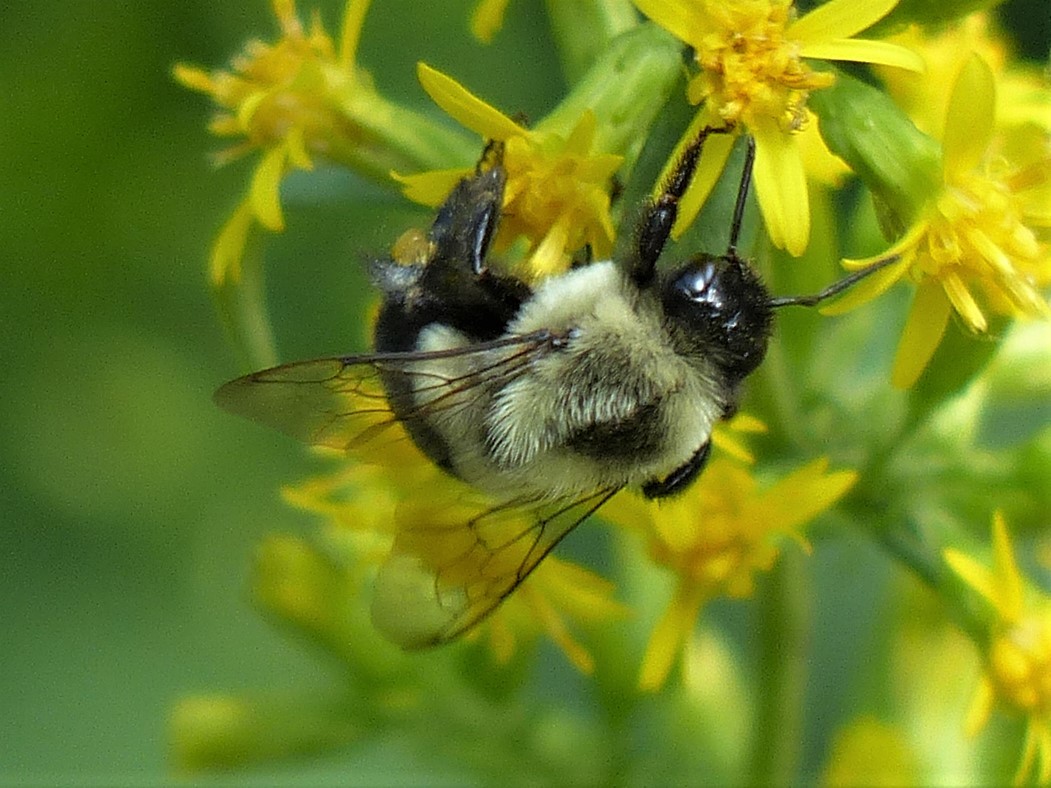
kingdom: Animalia
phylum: Arthropoda
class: Insecta
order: Hymenoptera
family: Apidae
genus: Bombus
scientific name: Bombus impatiens
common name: Common eastern bumble bee
